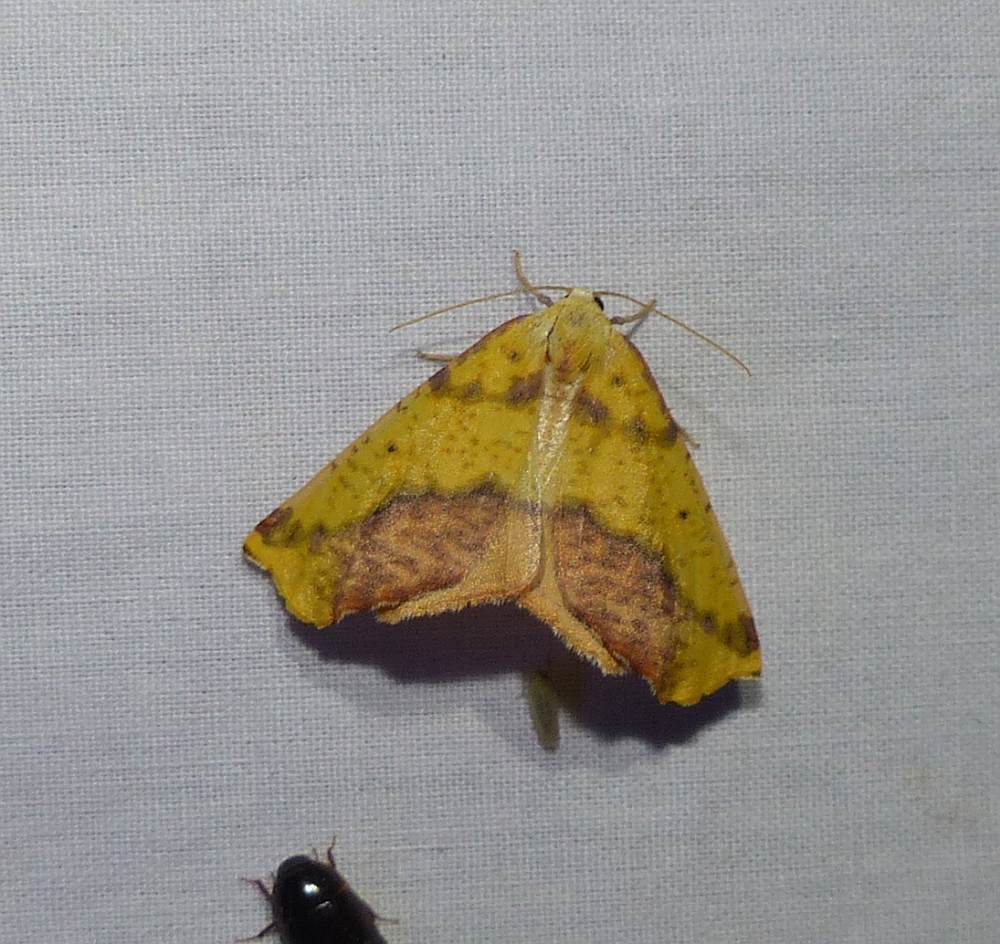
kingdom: Animalia
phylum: Arthropoda
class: Insecta
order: Lepidoptera
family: Geometridae
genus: Sicya
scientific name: Sicya macularia
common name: Sharp-lined yellow
